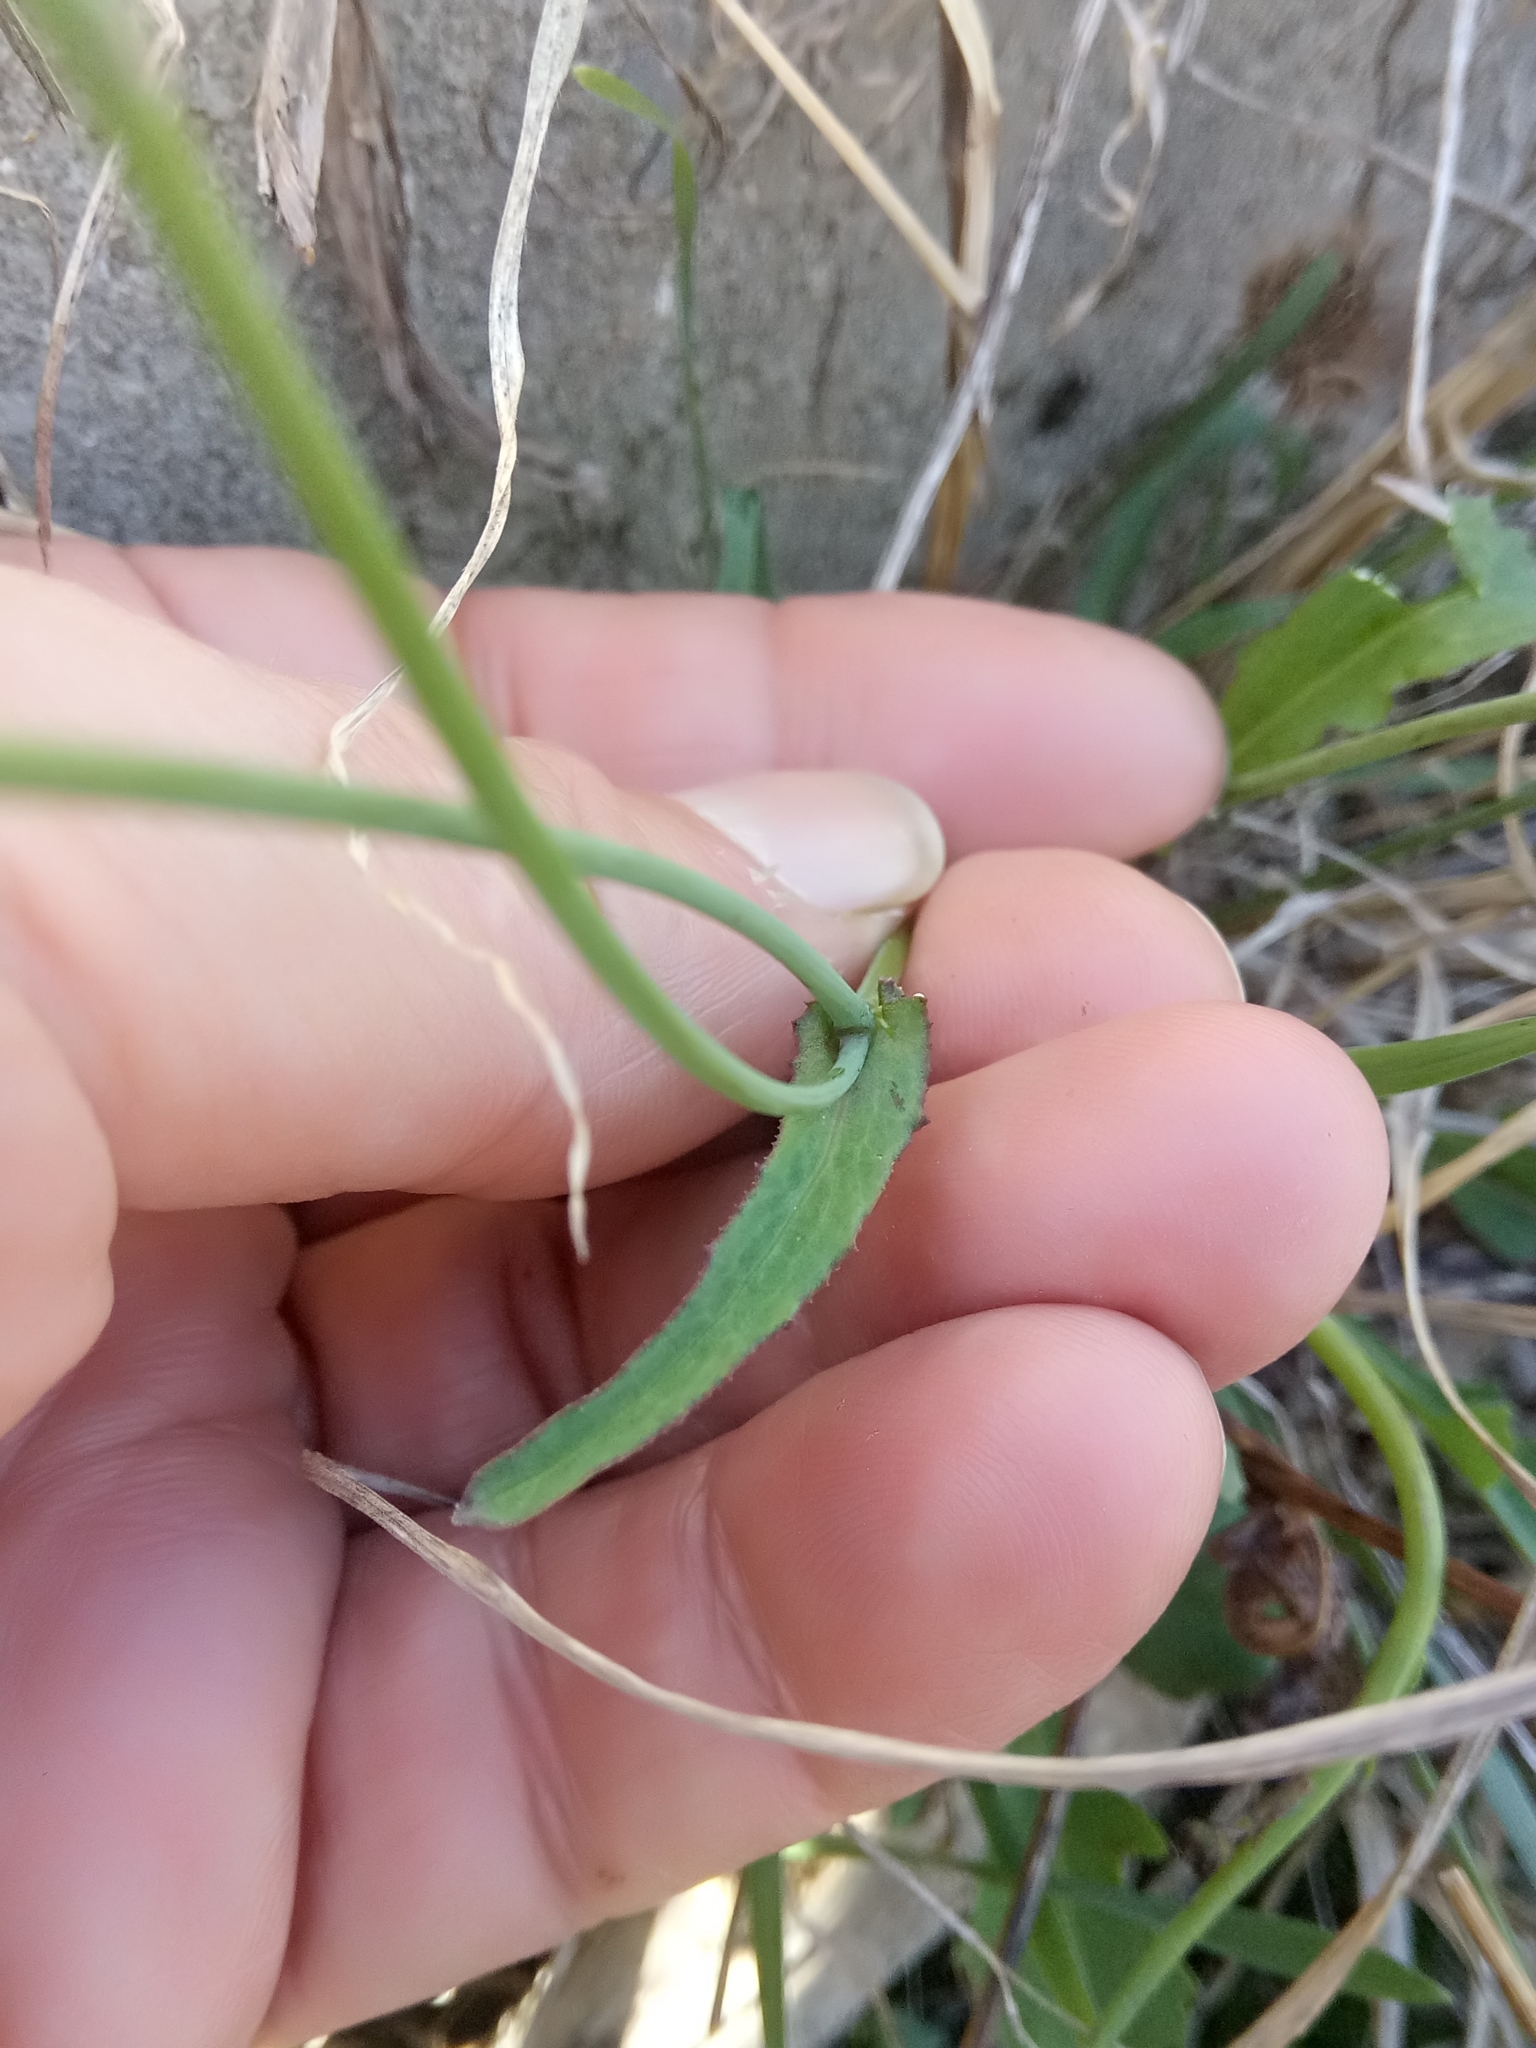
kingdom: Plantae
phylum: Tracheophyta
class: Magnoliopsida
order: Asterales
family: Asteraceae
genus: Reichardia
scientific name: Reichardia picroides
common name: Common brighteyes
